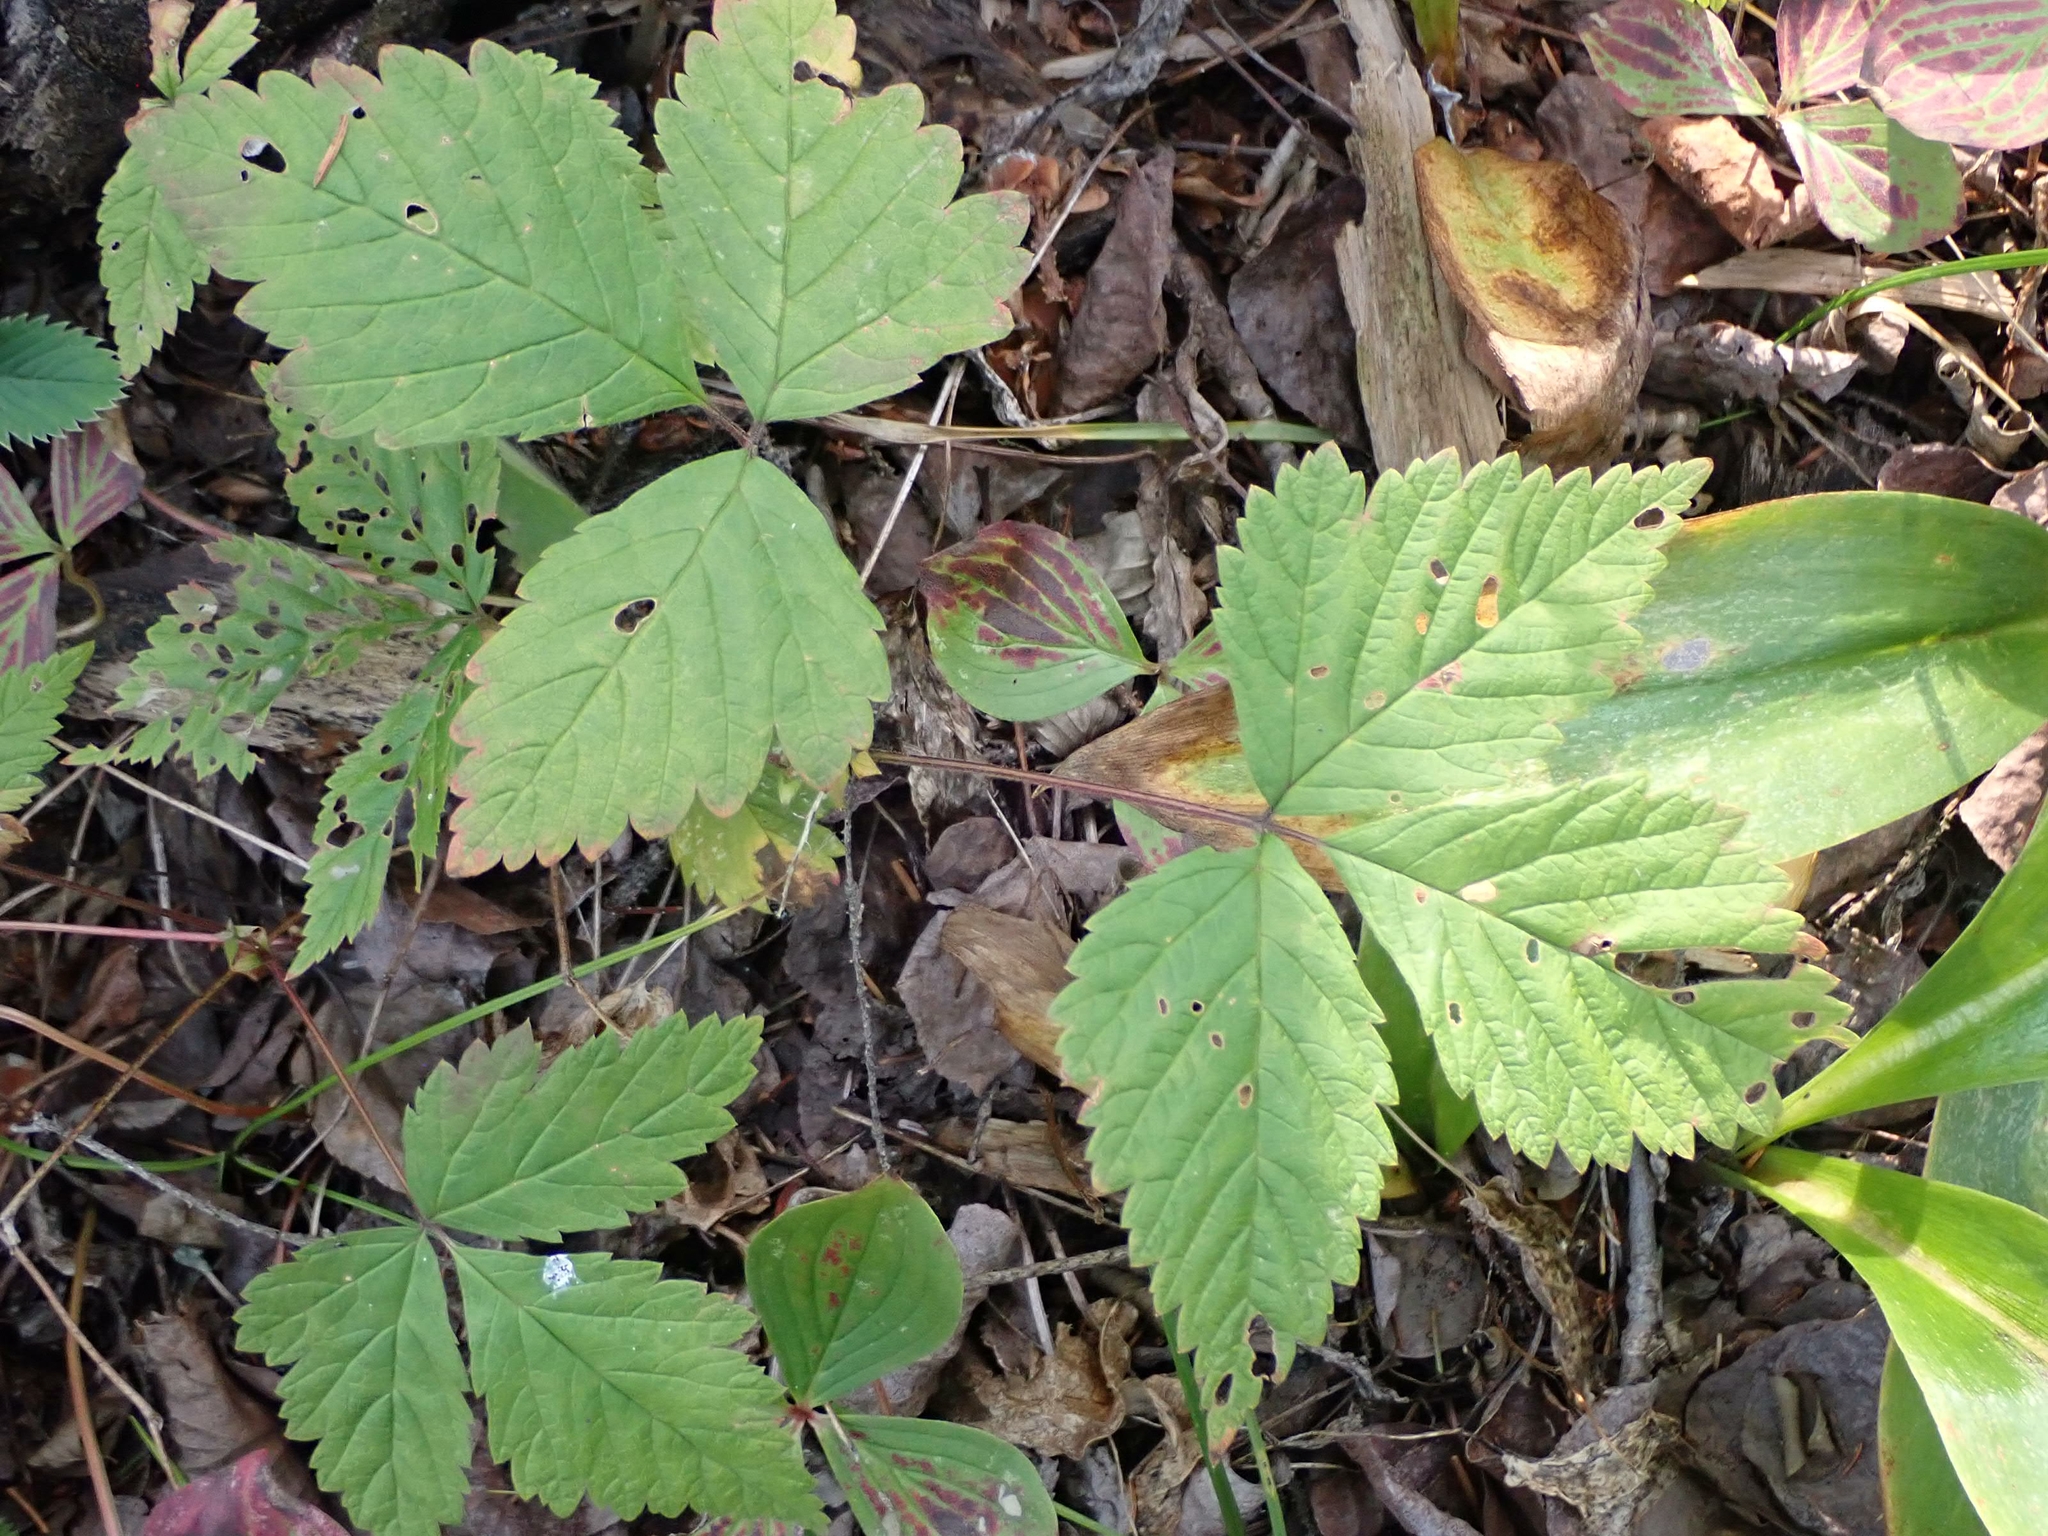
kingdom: Plantae
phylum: Tracheophyta
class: Magnoliopsida
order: Rosales
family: Rosaceae
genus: Rubus
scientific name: Rubus pubescens
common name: Dwarf raspberry
